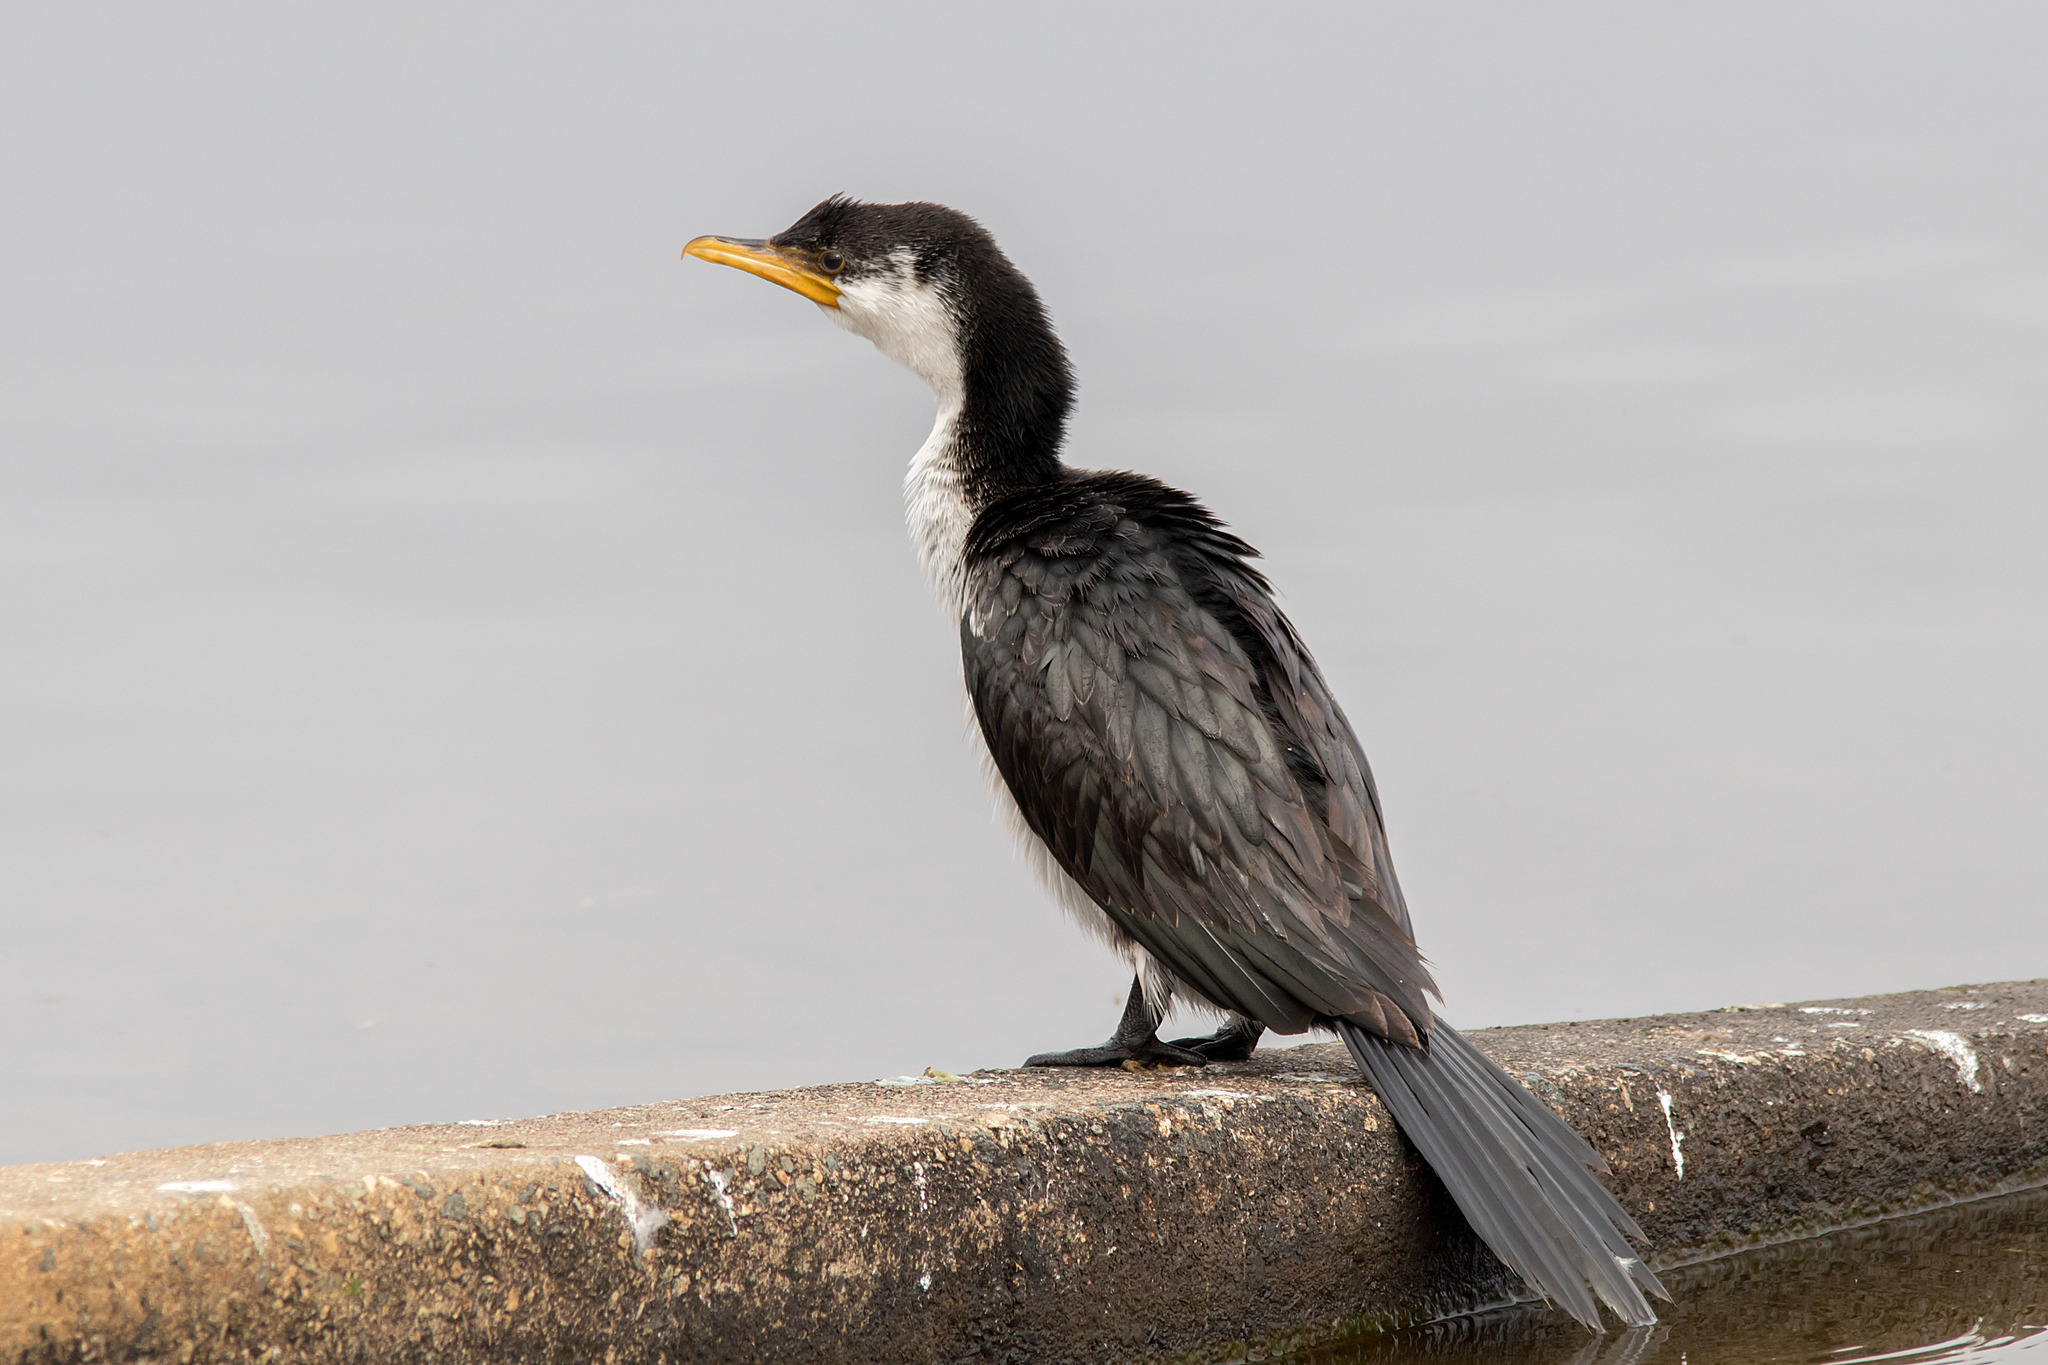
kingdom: Animalia
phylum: Chordata
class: Aves
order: Suliformes
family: Phalacrocoracidae
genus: Microcarbo
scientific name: Microcarbo melanoleucos
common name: Little pied cormorant
